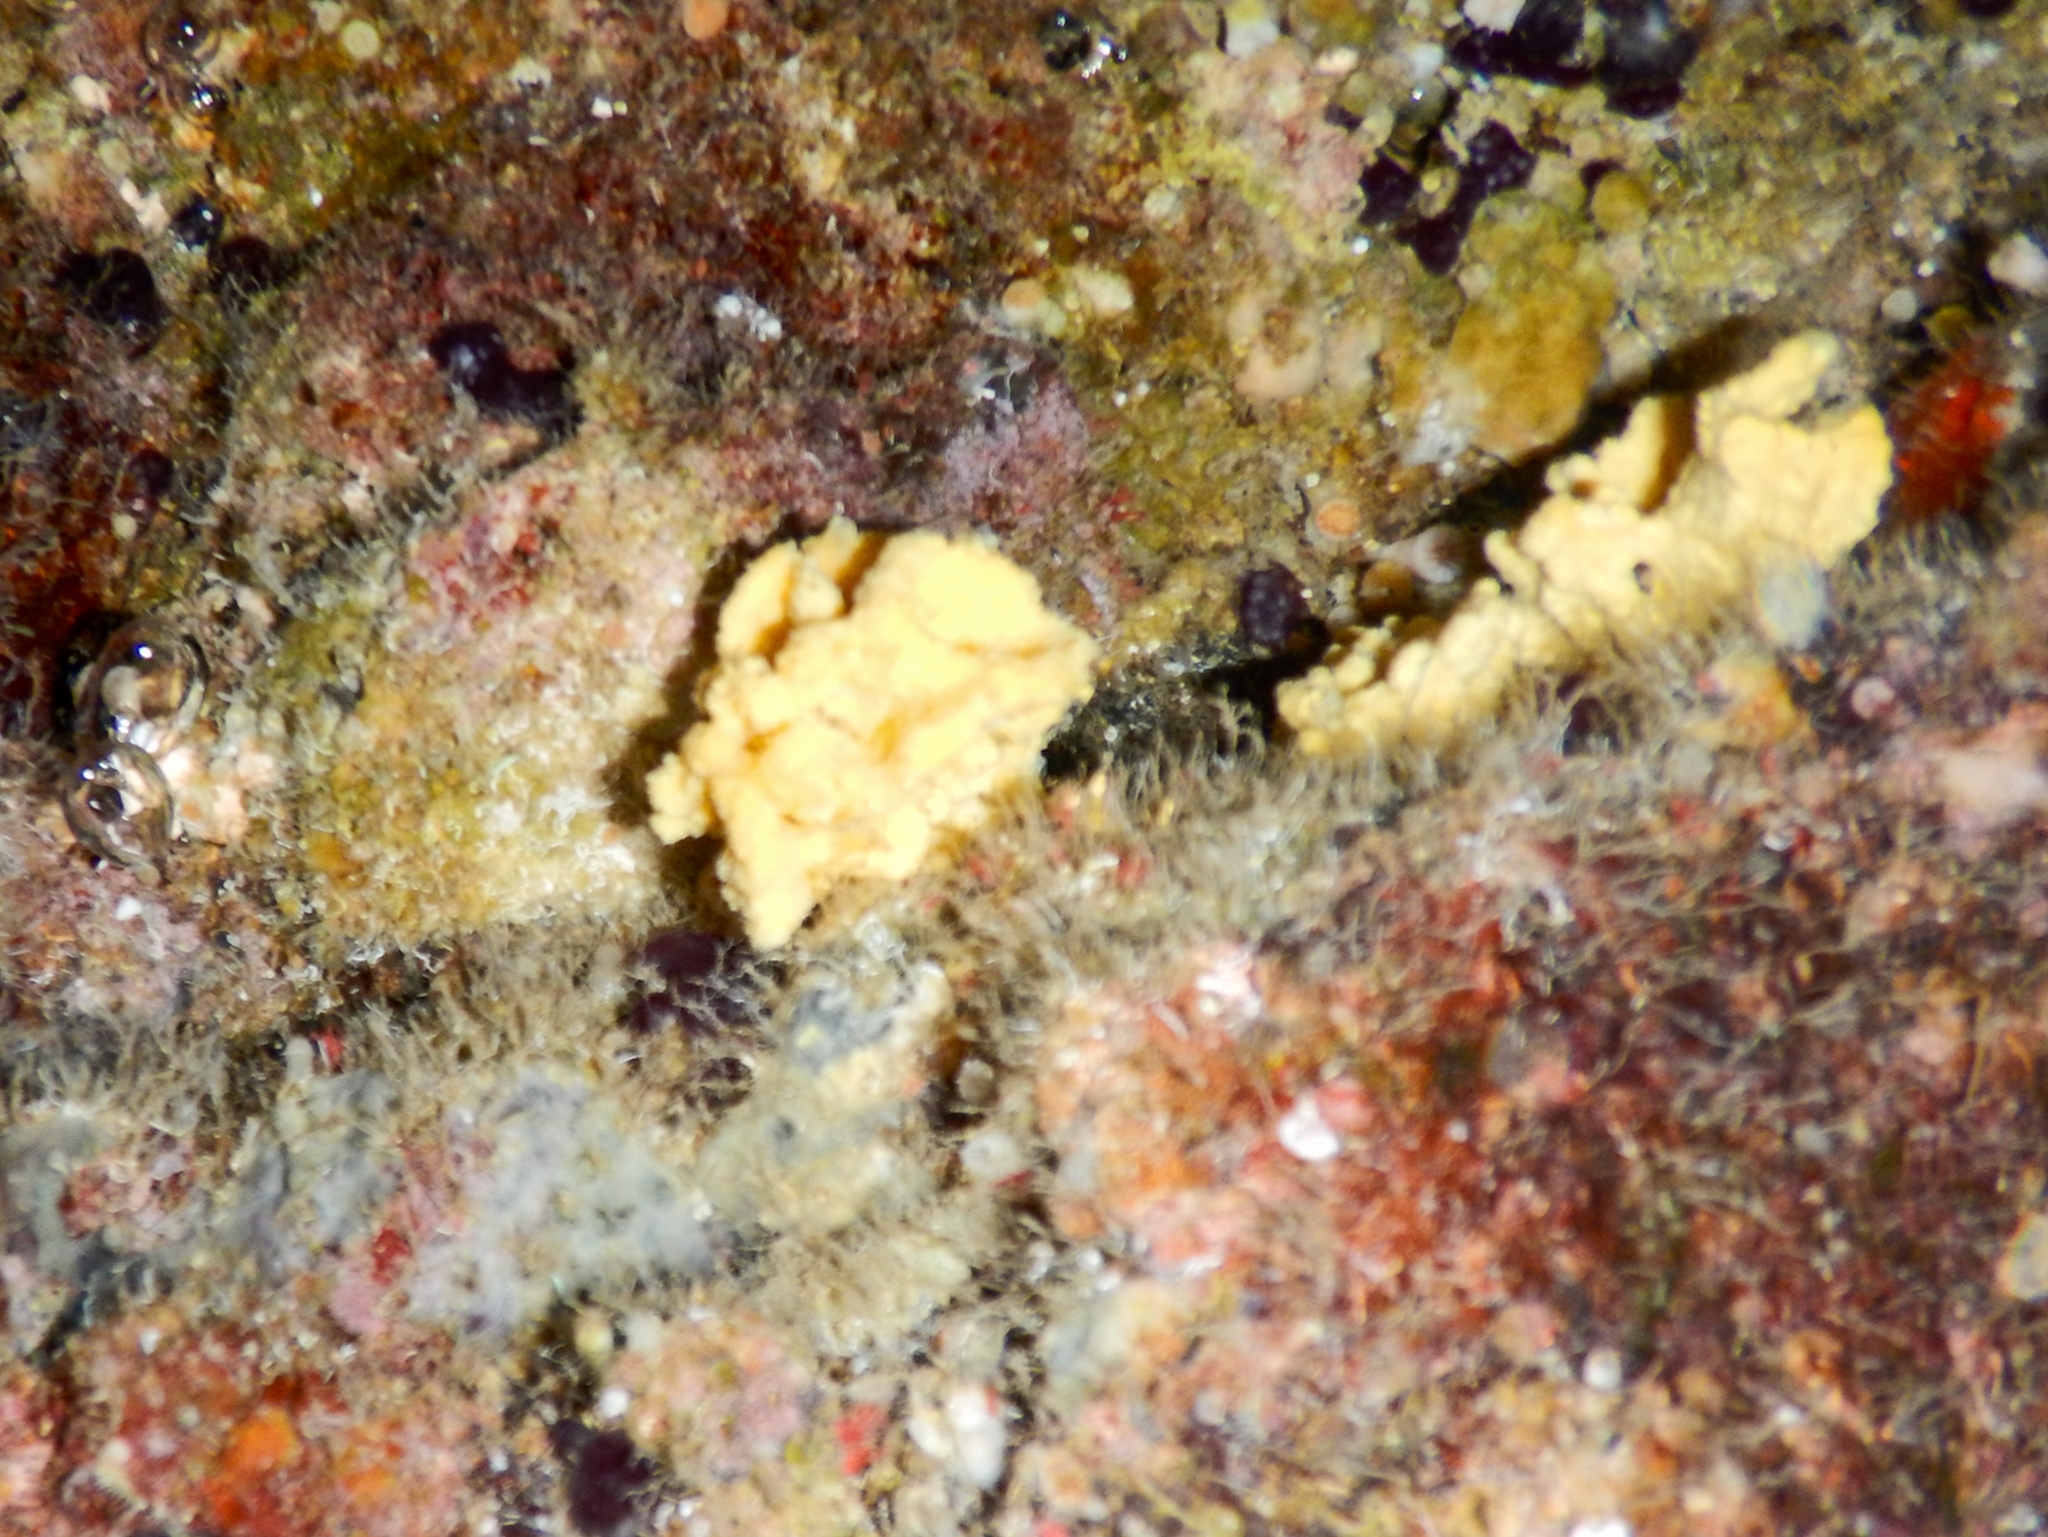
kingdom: Animalia
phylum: Porifera
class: Demospongiae
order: Axinellida
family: Axinellidae
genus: Axinella
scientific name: Axinella damicornis
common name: Crumpled duster sponge
